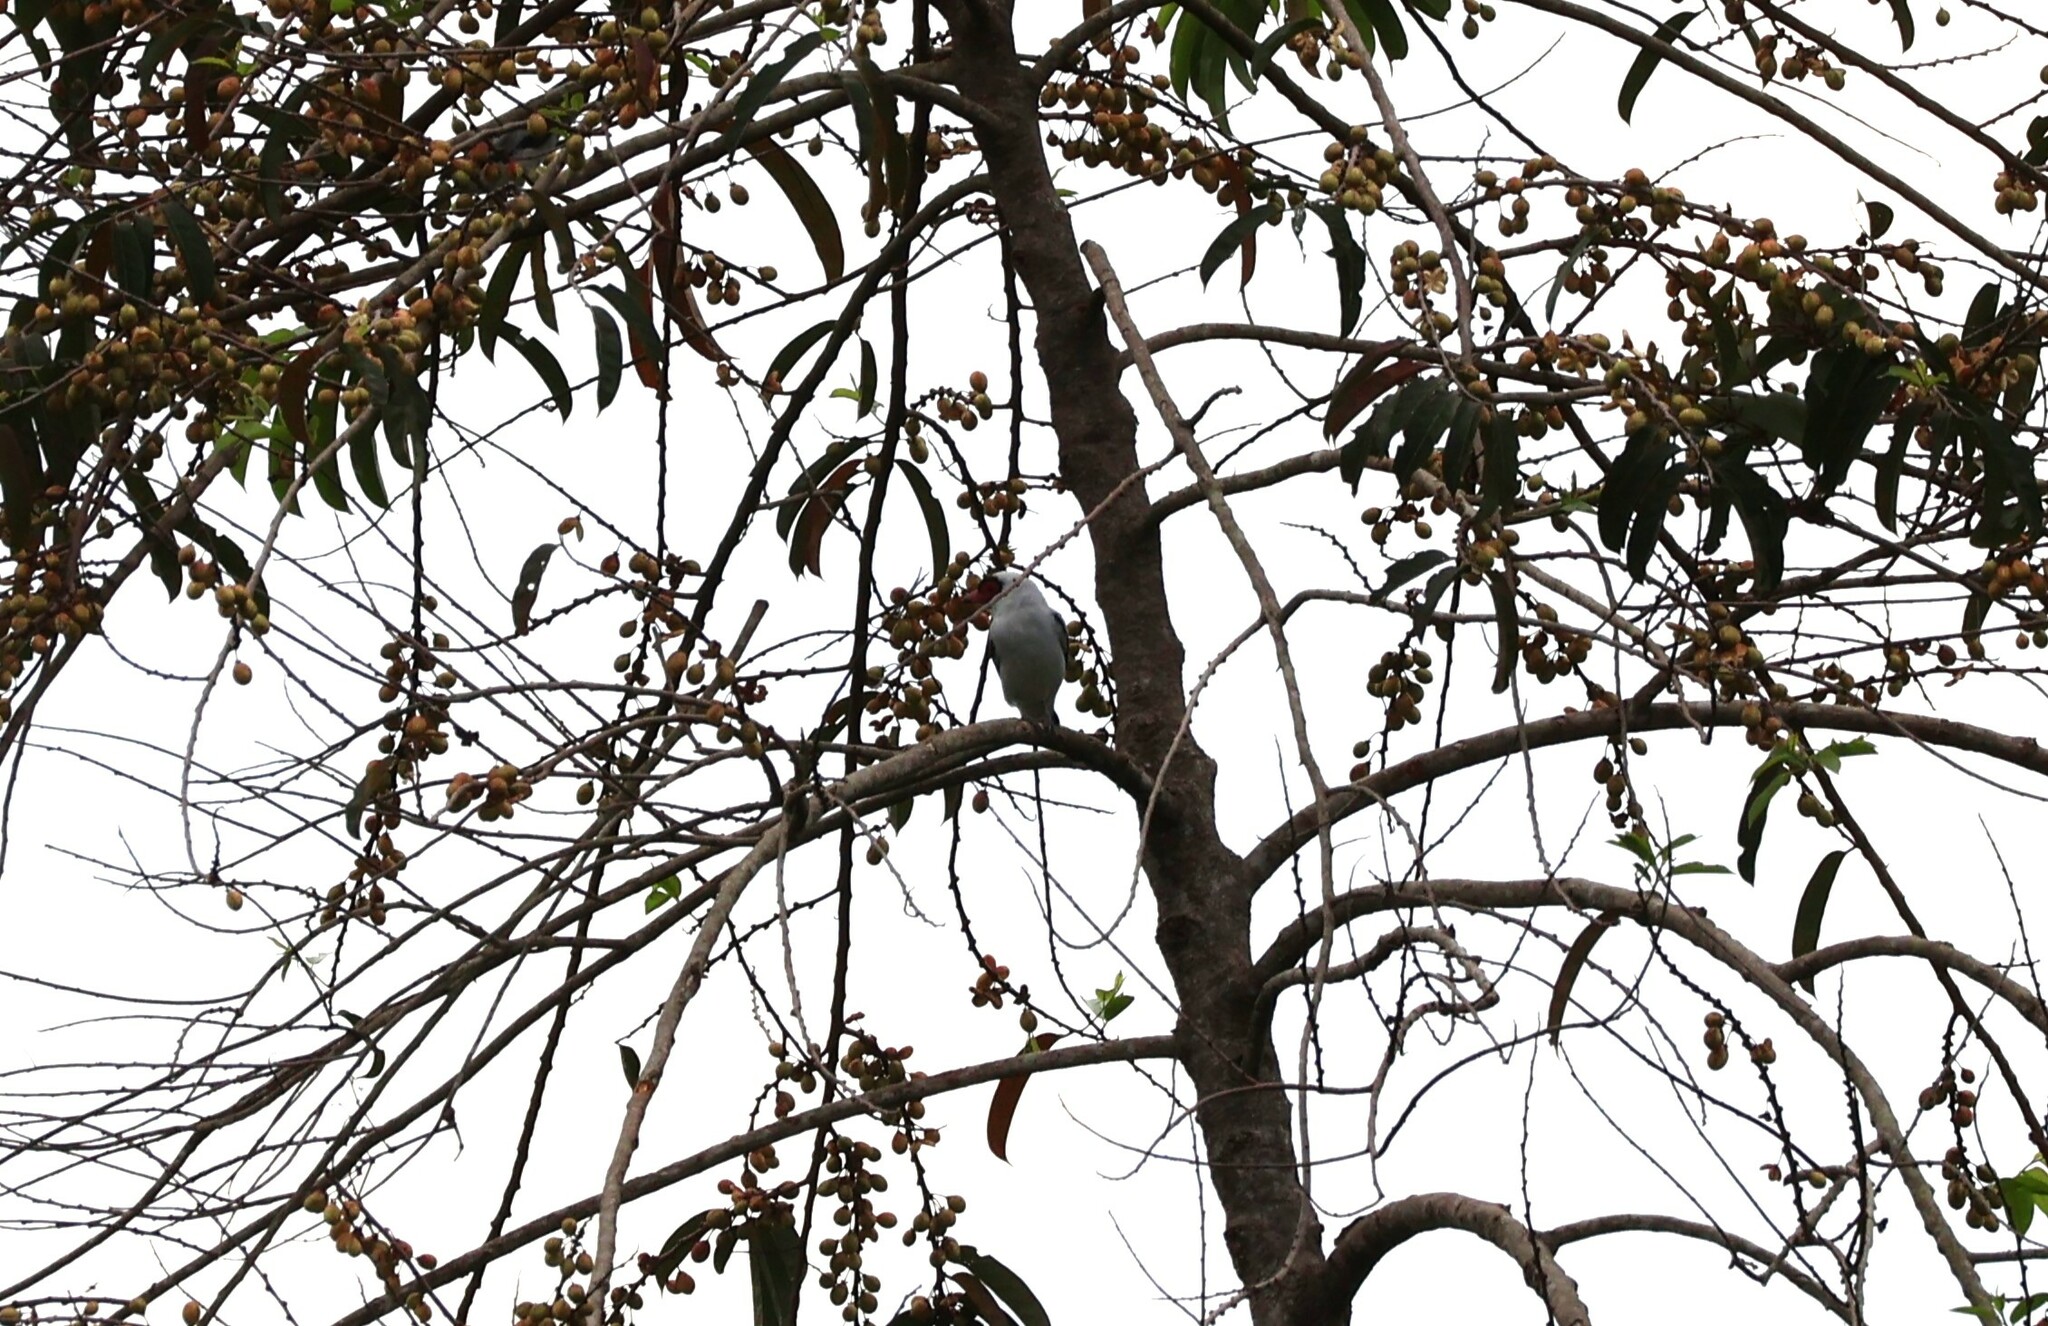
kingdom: Animalia
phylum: Chordata
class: Aves
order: Passeriformes
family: Cotingidae
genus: Tityra
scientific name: Tityra semifasciata
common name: Masked tityra
